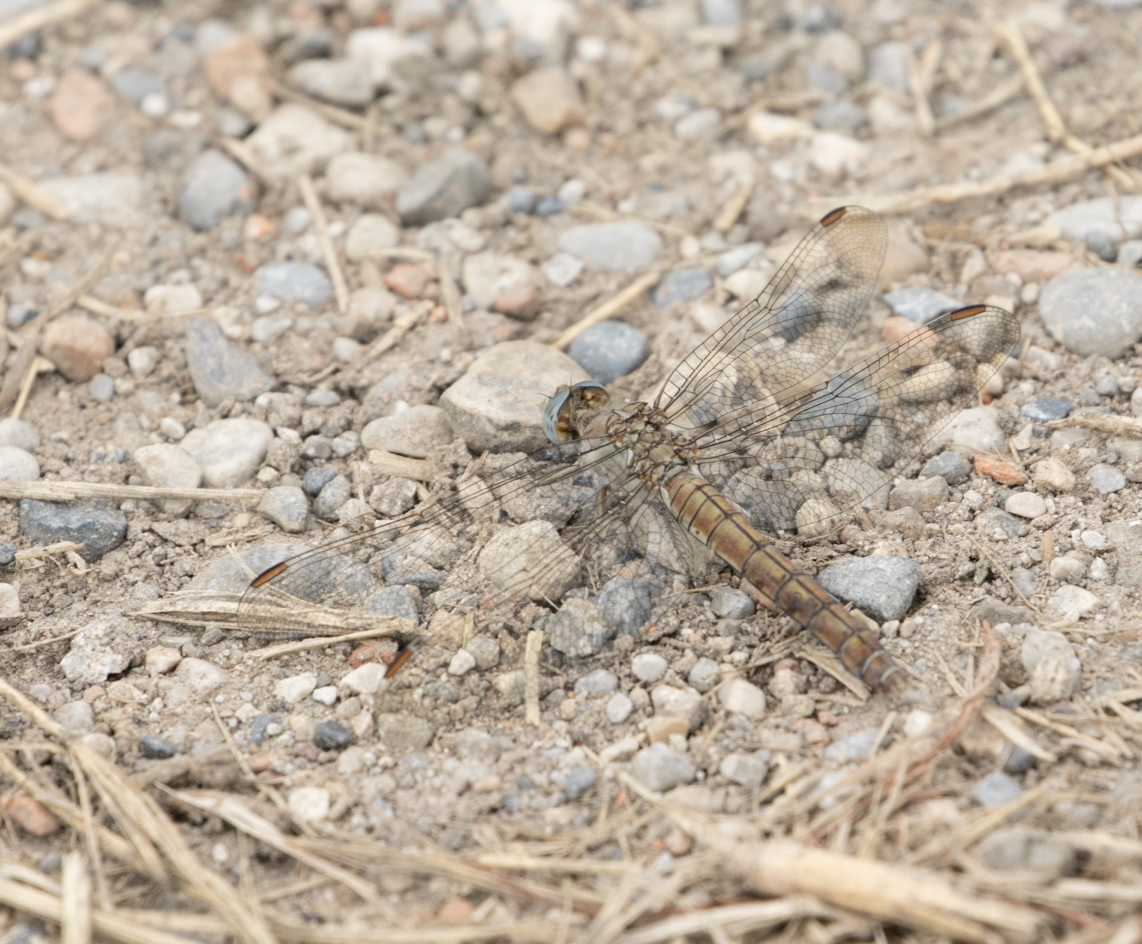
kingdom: Animalia
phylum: Arthropoda
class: Insecta
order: Odonata
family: Libellulidae
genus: Orthetrum
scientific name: Orthetrum brunneum
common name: Southern skimmer
